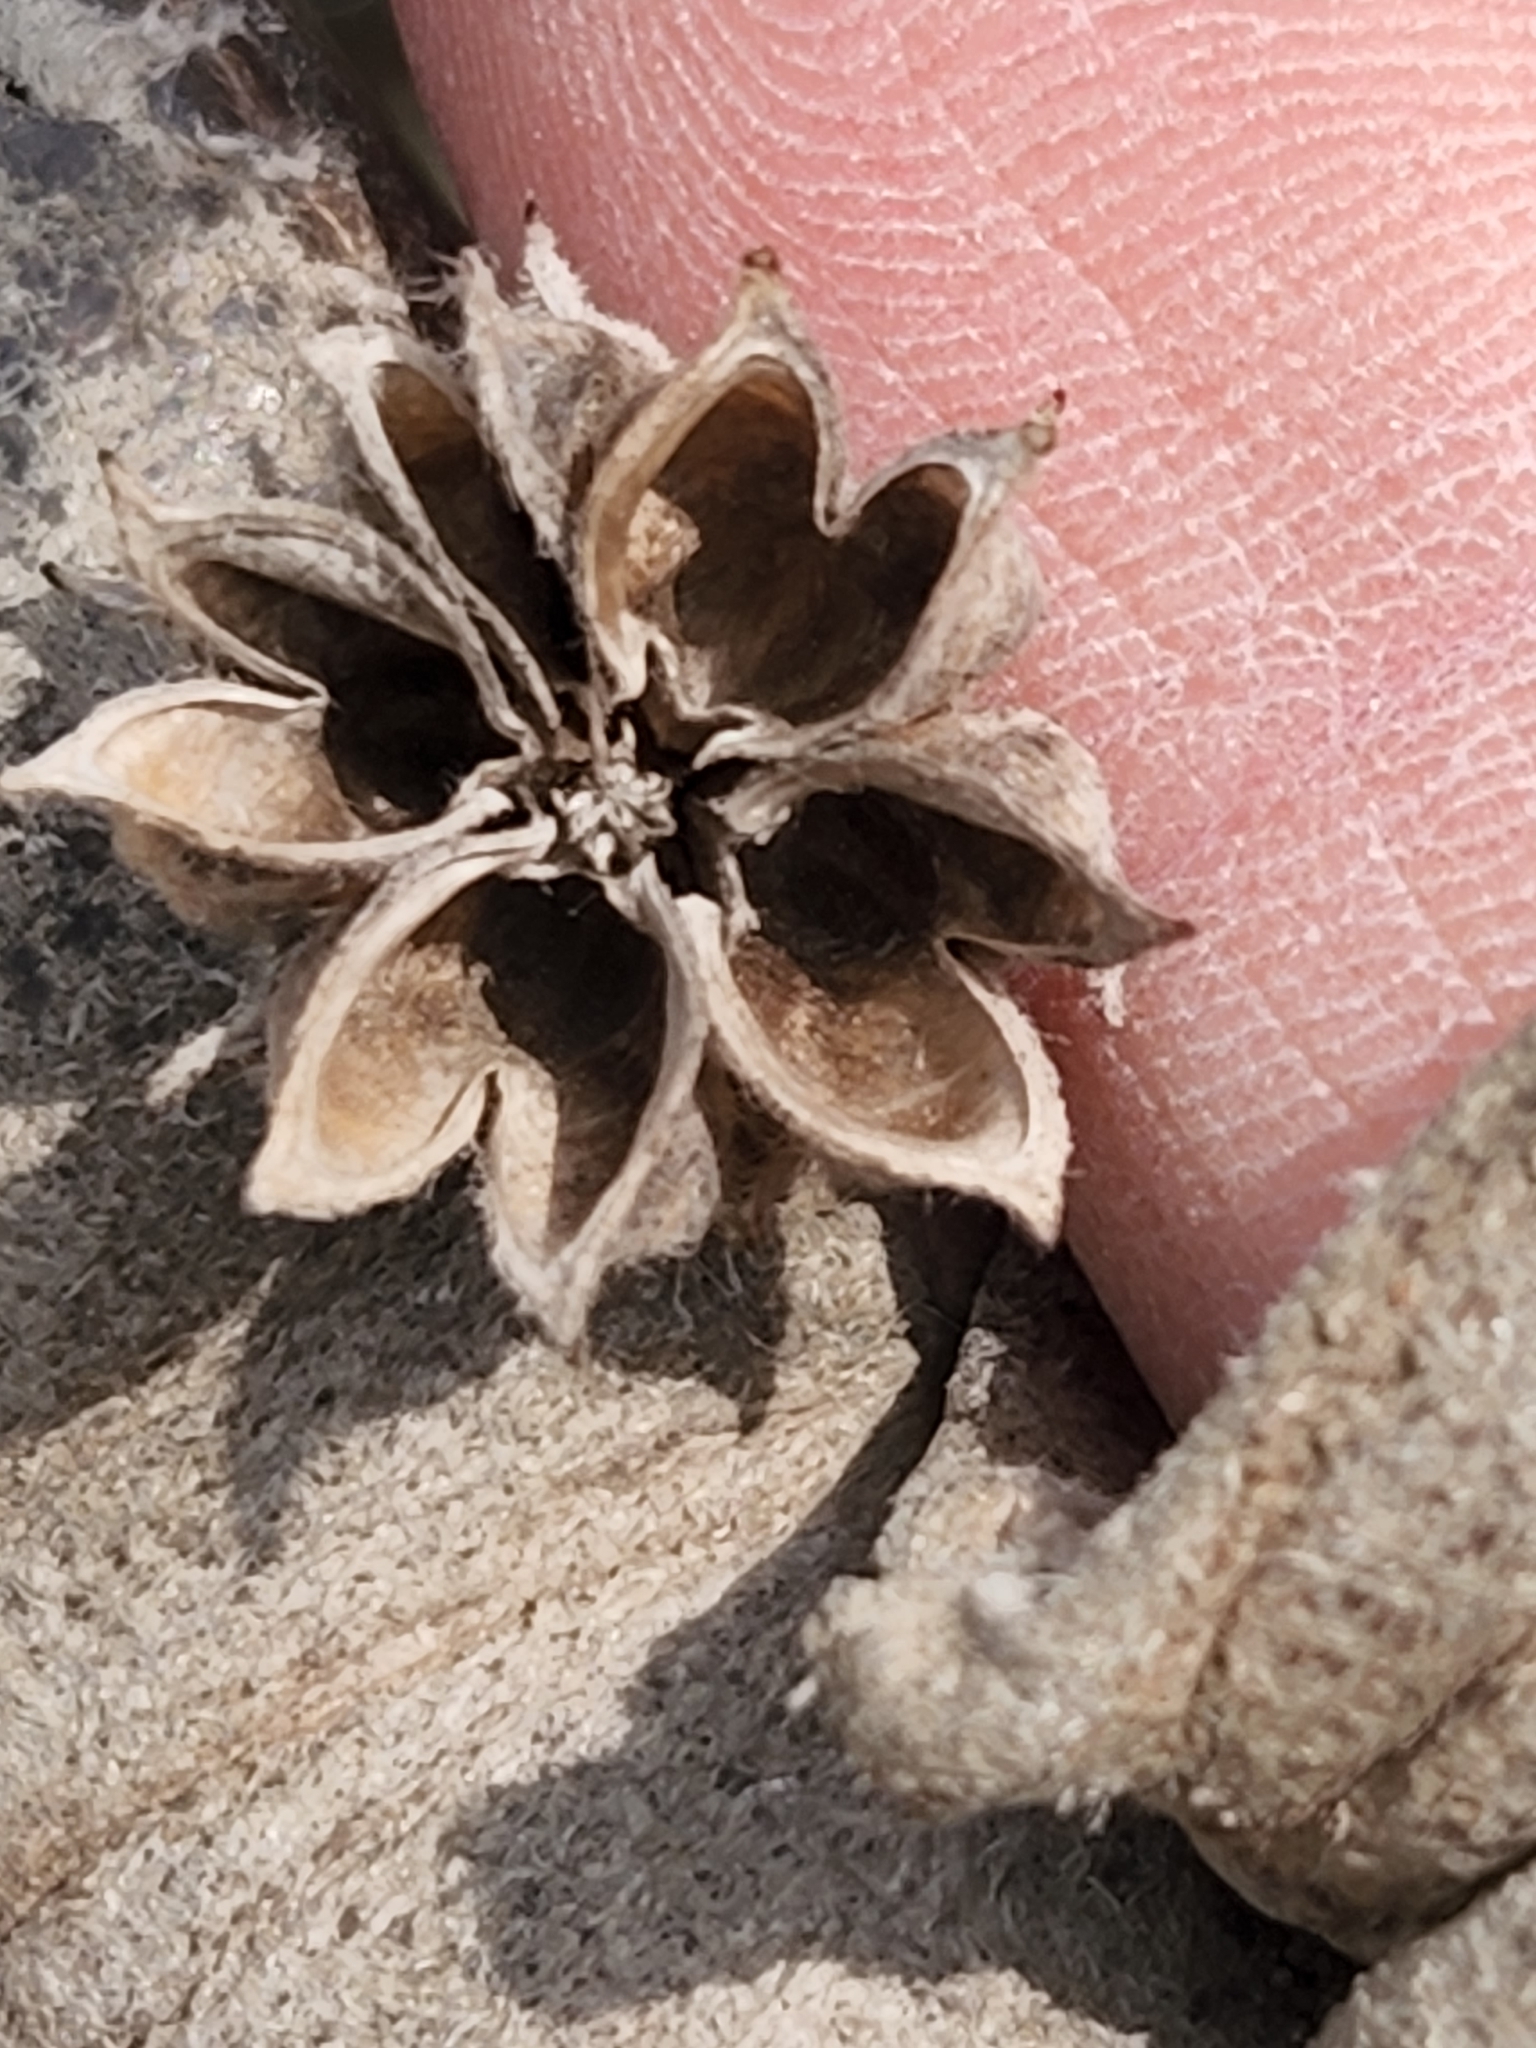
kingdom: Plantae
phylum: Tracheophyta
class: Magnoliopsida
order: Malvales
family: Malvaceae
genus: Allowissadula
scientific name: Allowissadula holosericea
